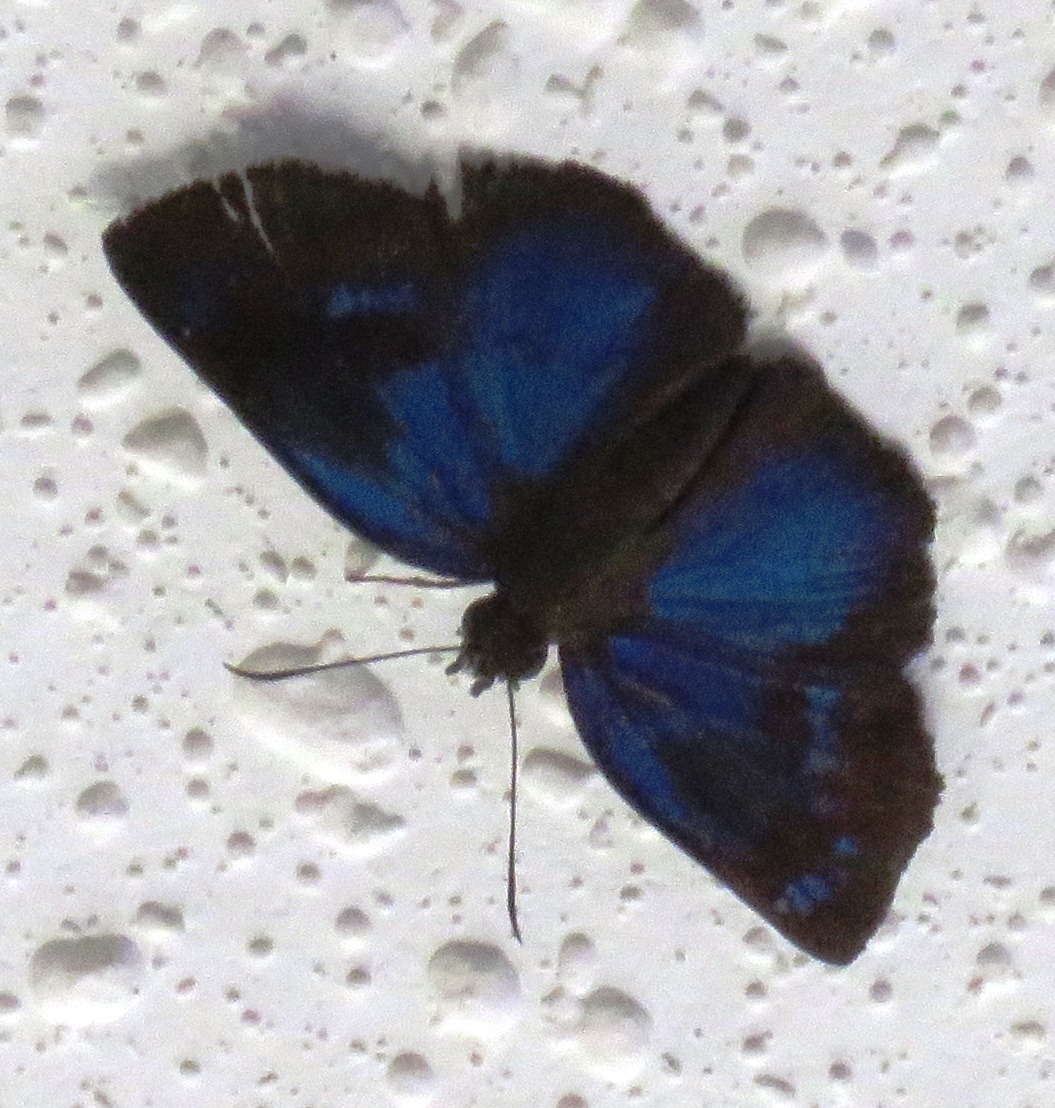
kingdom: Animalia
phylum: Arthropoda
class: Insecta
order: Lepidoptera
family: Hesperiidae
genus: Paches
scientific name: Paches loxus
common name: Glorious blue-skipper
